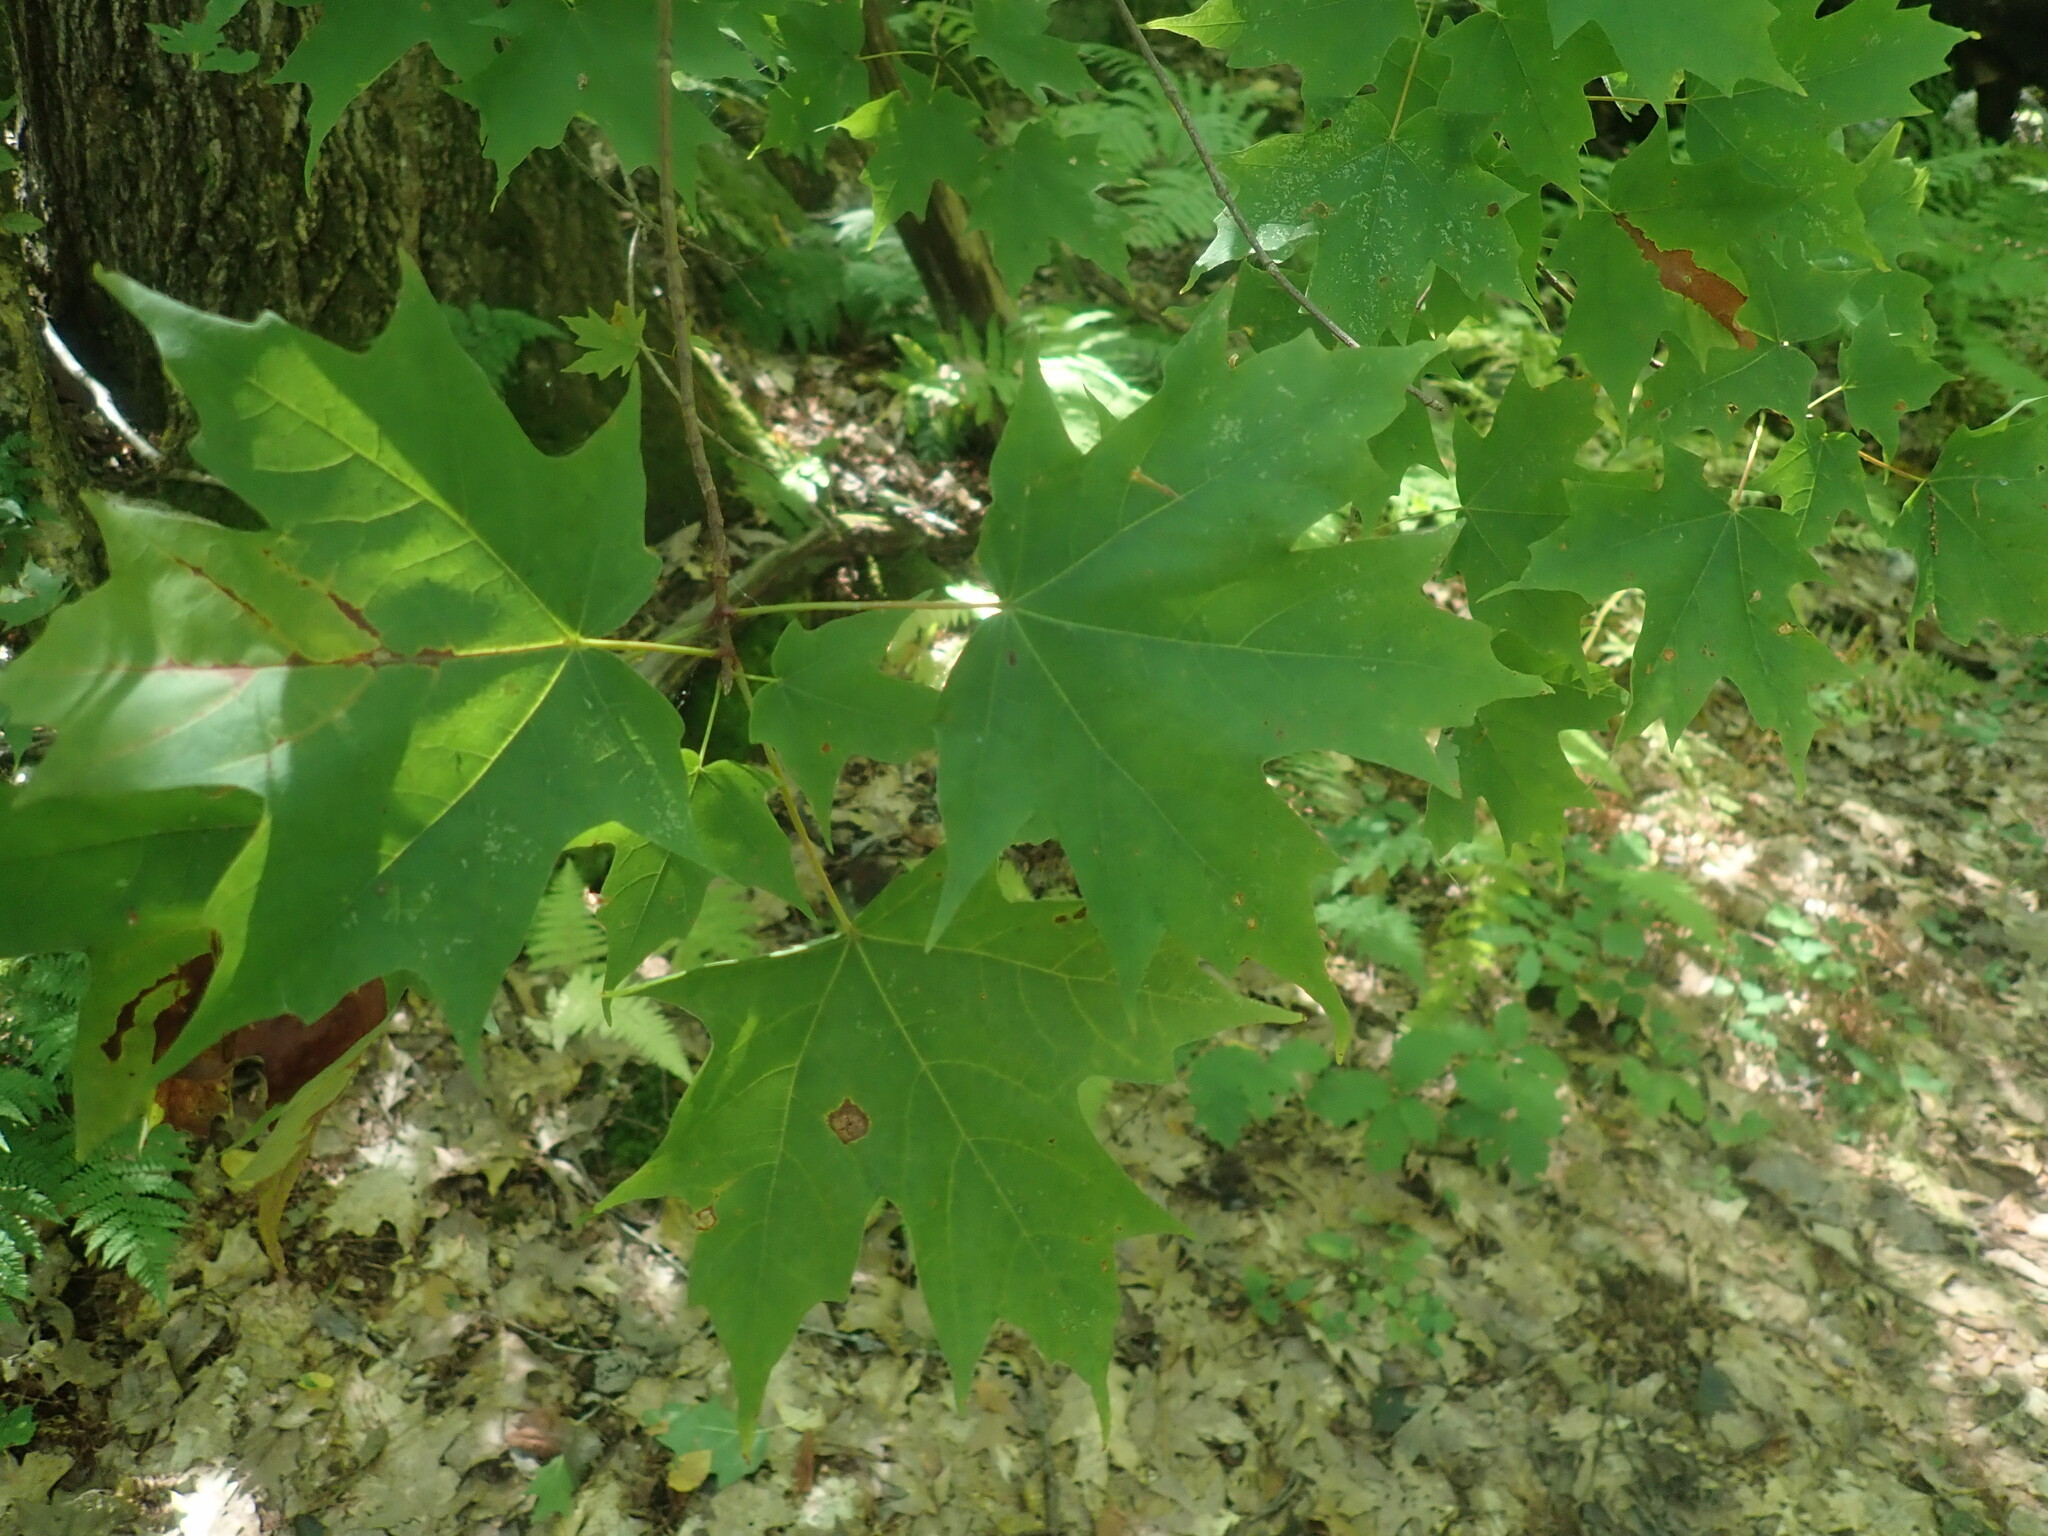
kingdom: Plantae
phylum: Tracheophyta
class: Magnoliopsida
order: Sapindales
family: Sapindaceae
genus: Acer
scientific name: Acer saccharum
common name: Sugar maple
